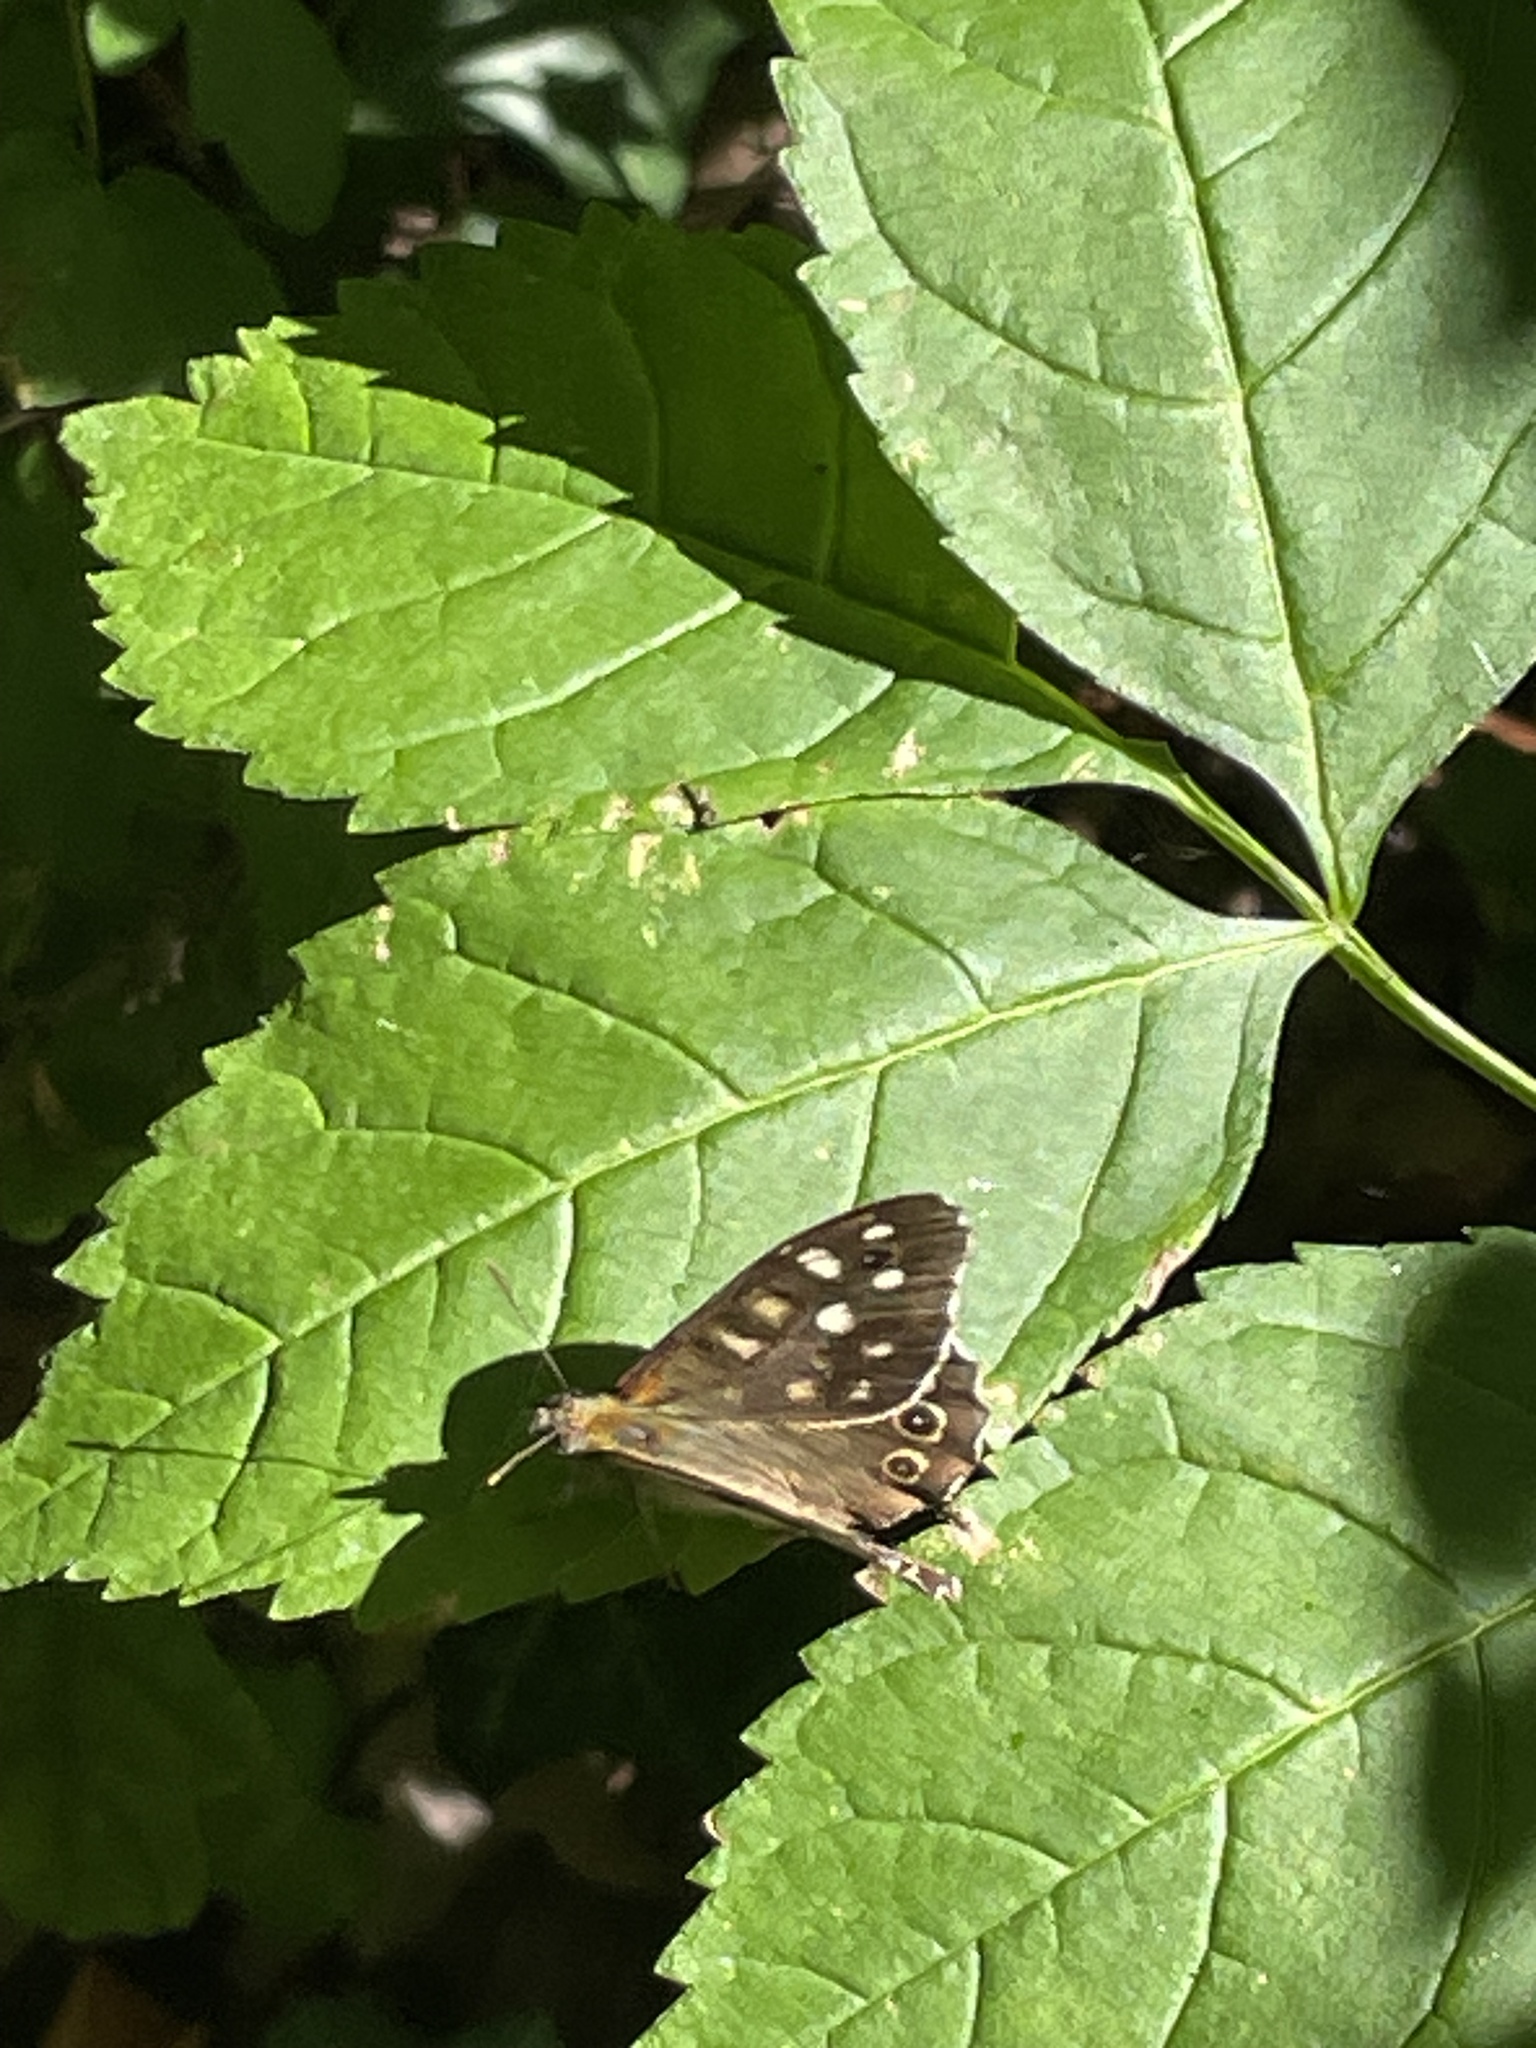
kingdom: Animalia
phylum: Arthropoda
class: Insecta
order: Lepidoptera
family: Nymphalidae
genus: Pararge
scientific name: Pararge aegeria
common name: Speckled wood
